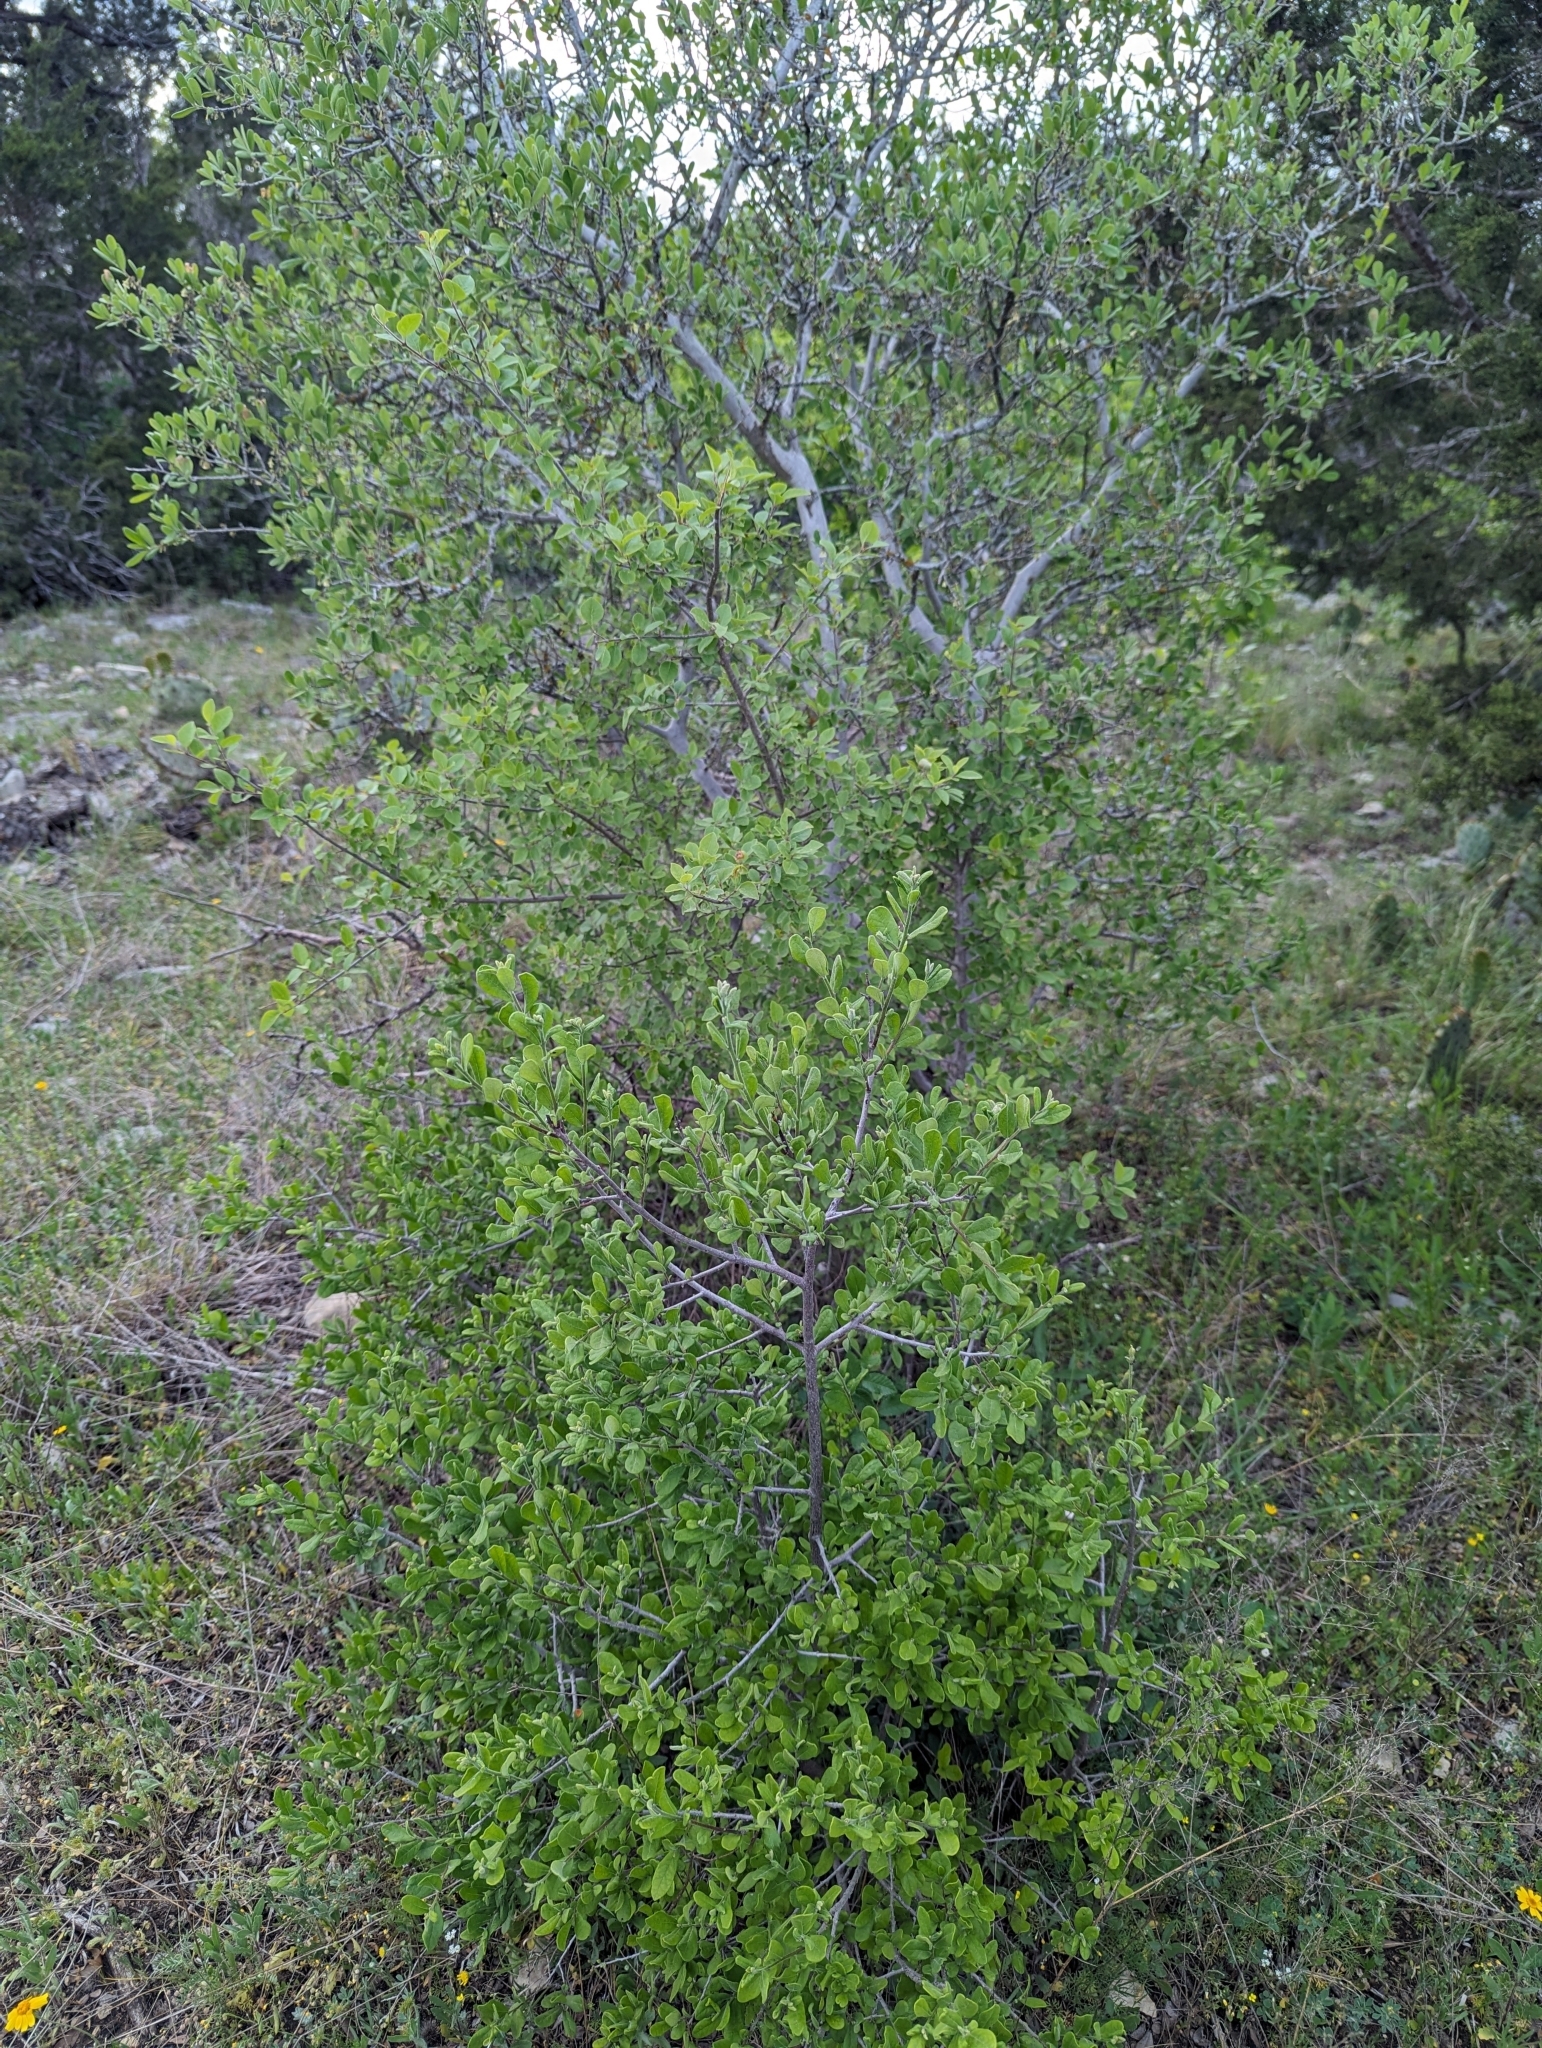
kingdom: Plantae
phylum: Tracheophyta
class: Magnoliopsida
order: Ericales
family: Ebenaceae
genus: Diospyros
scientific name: Diospyros texana
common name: Texas persimmon
